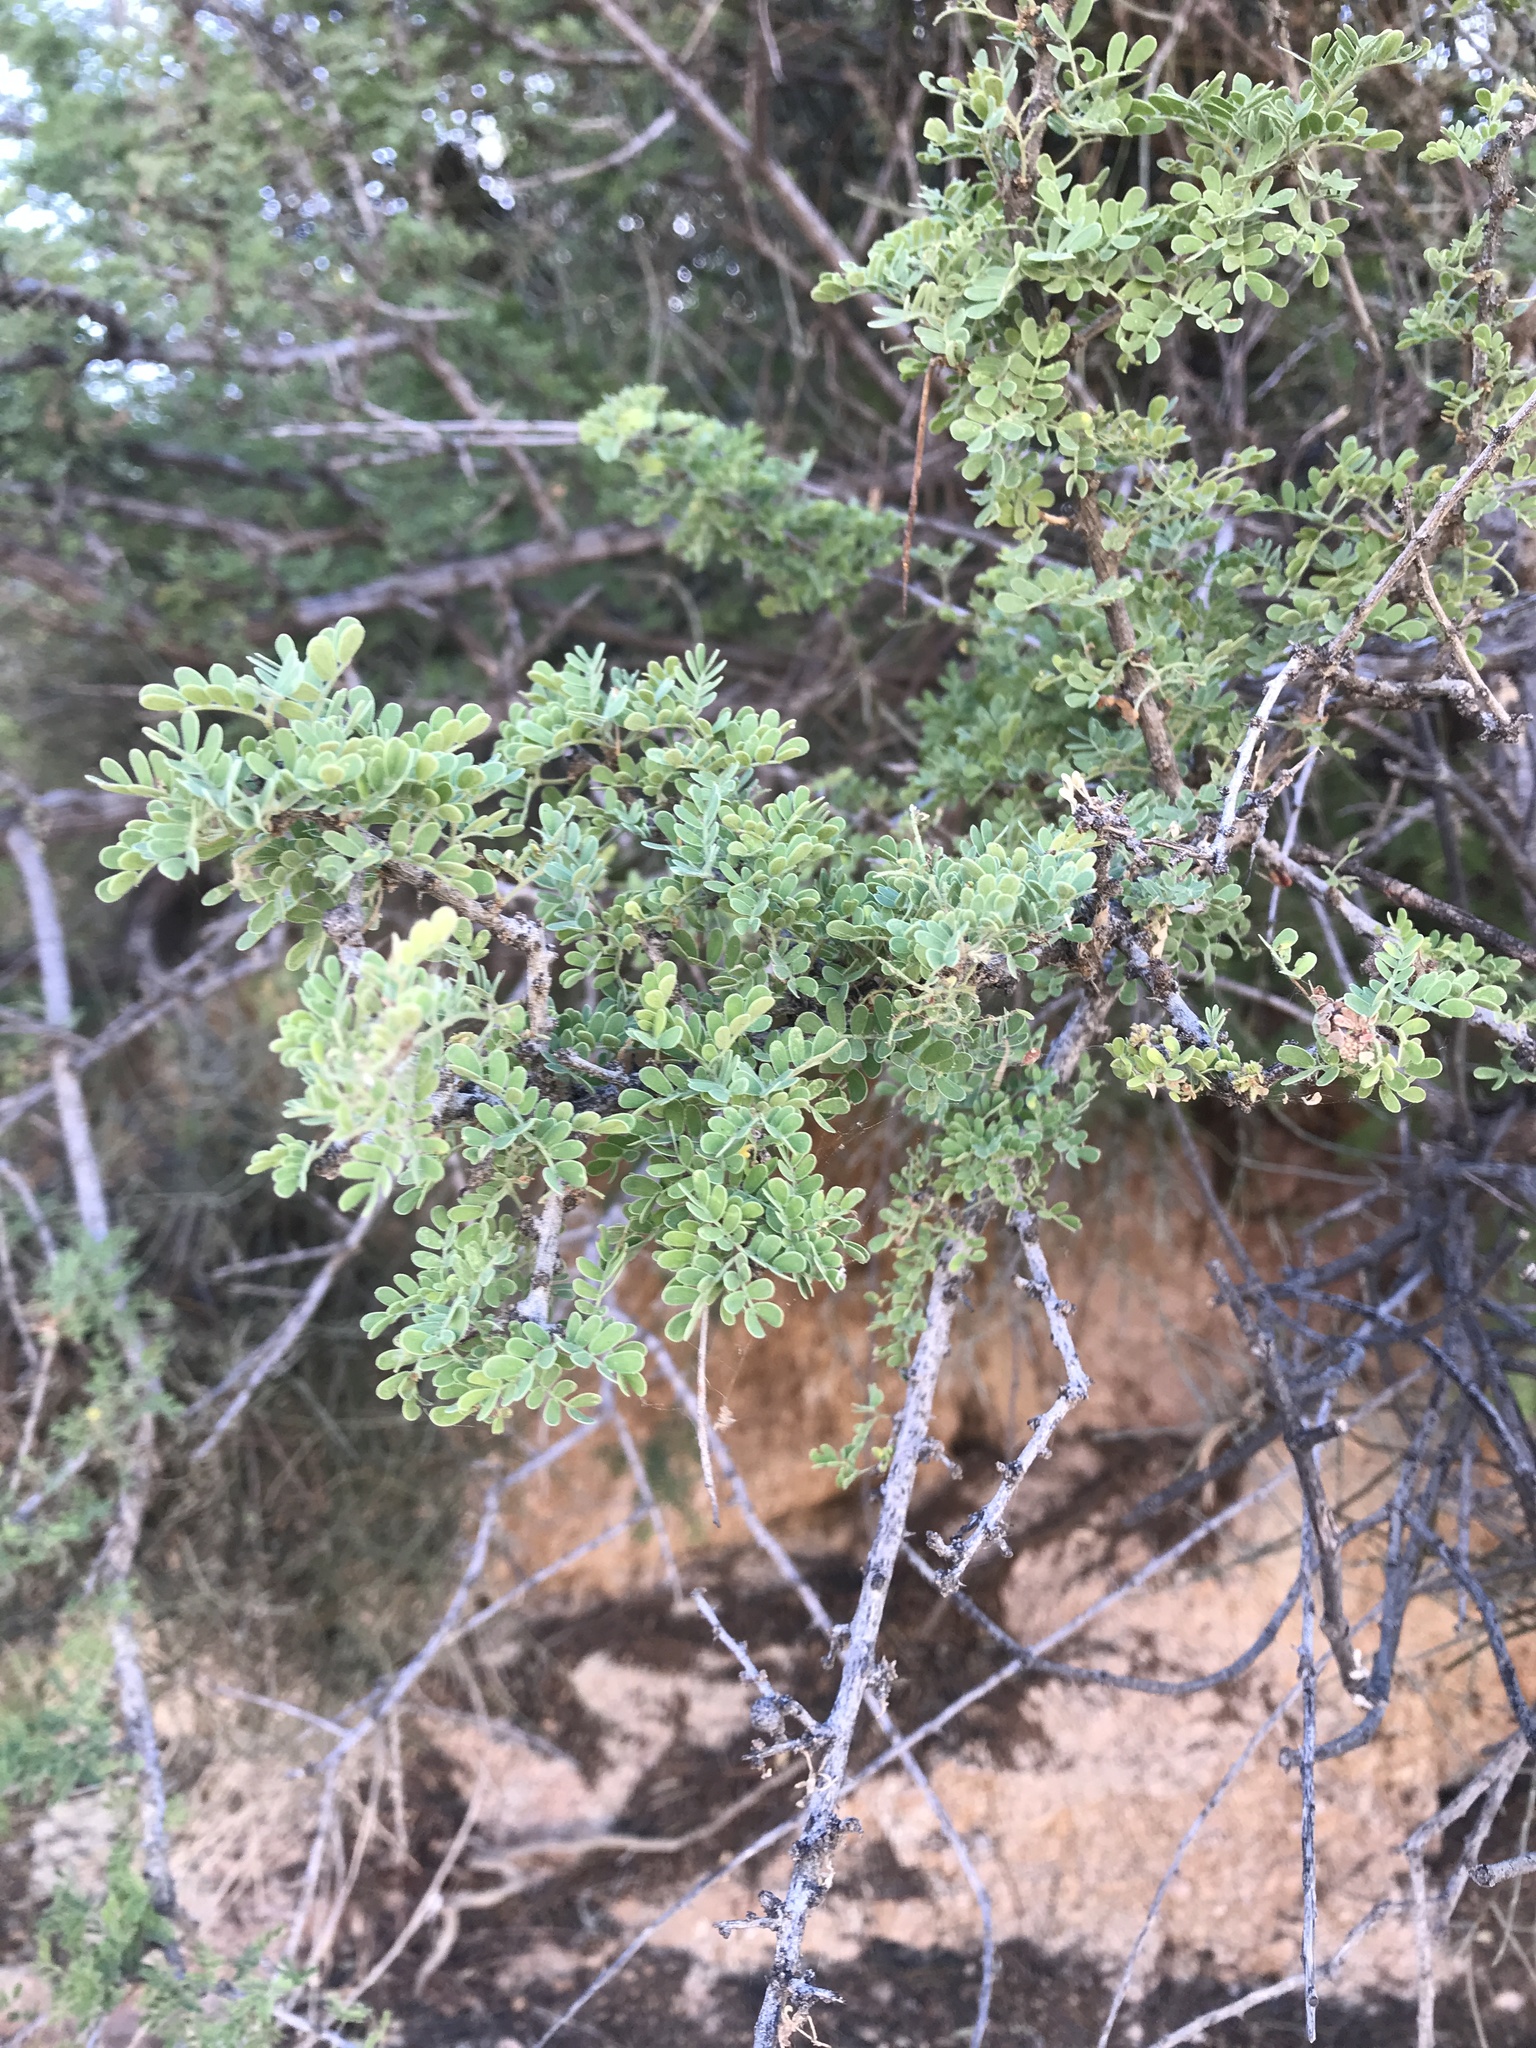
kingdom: Plantae
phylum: Tracheophyta
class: Magnoliopsida
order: Fabales
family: Fabaceae
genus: Senegalia
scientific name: Senegalia greggii
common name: Texas-mimosa
